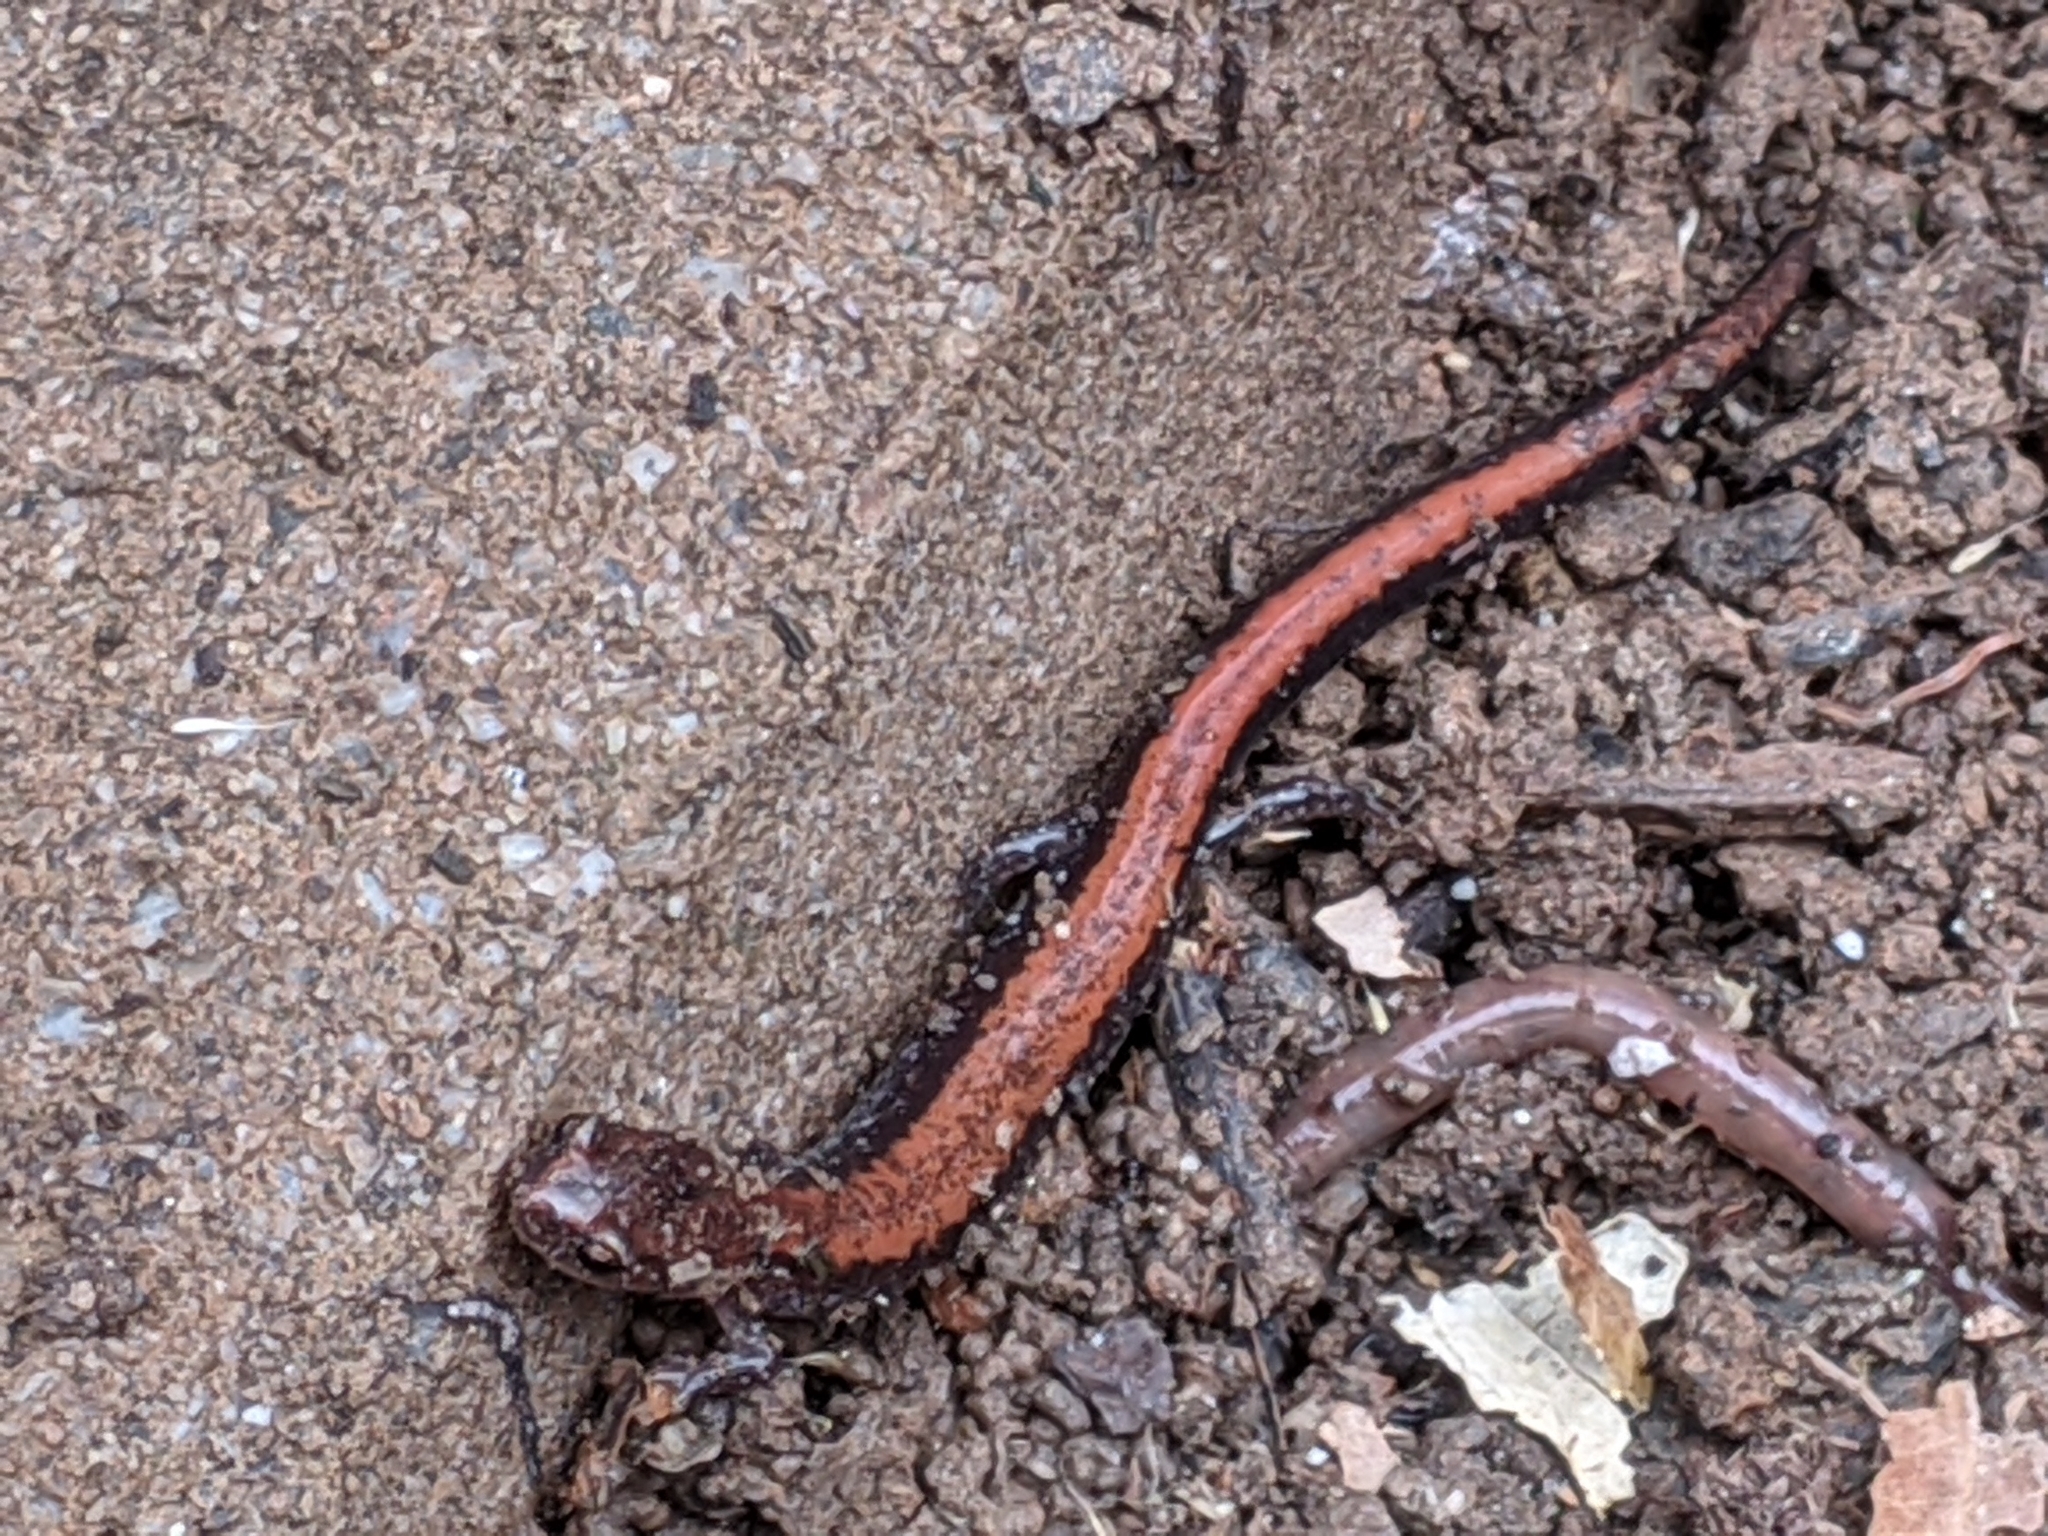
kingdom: Animalia
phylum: Chordata
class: Amphibia
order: Caudata
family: Plethodontidae
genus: Plethodon
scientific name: Plethodon cinereus
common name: Redback salamander
